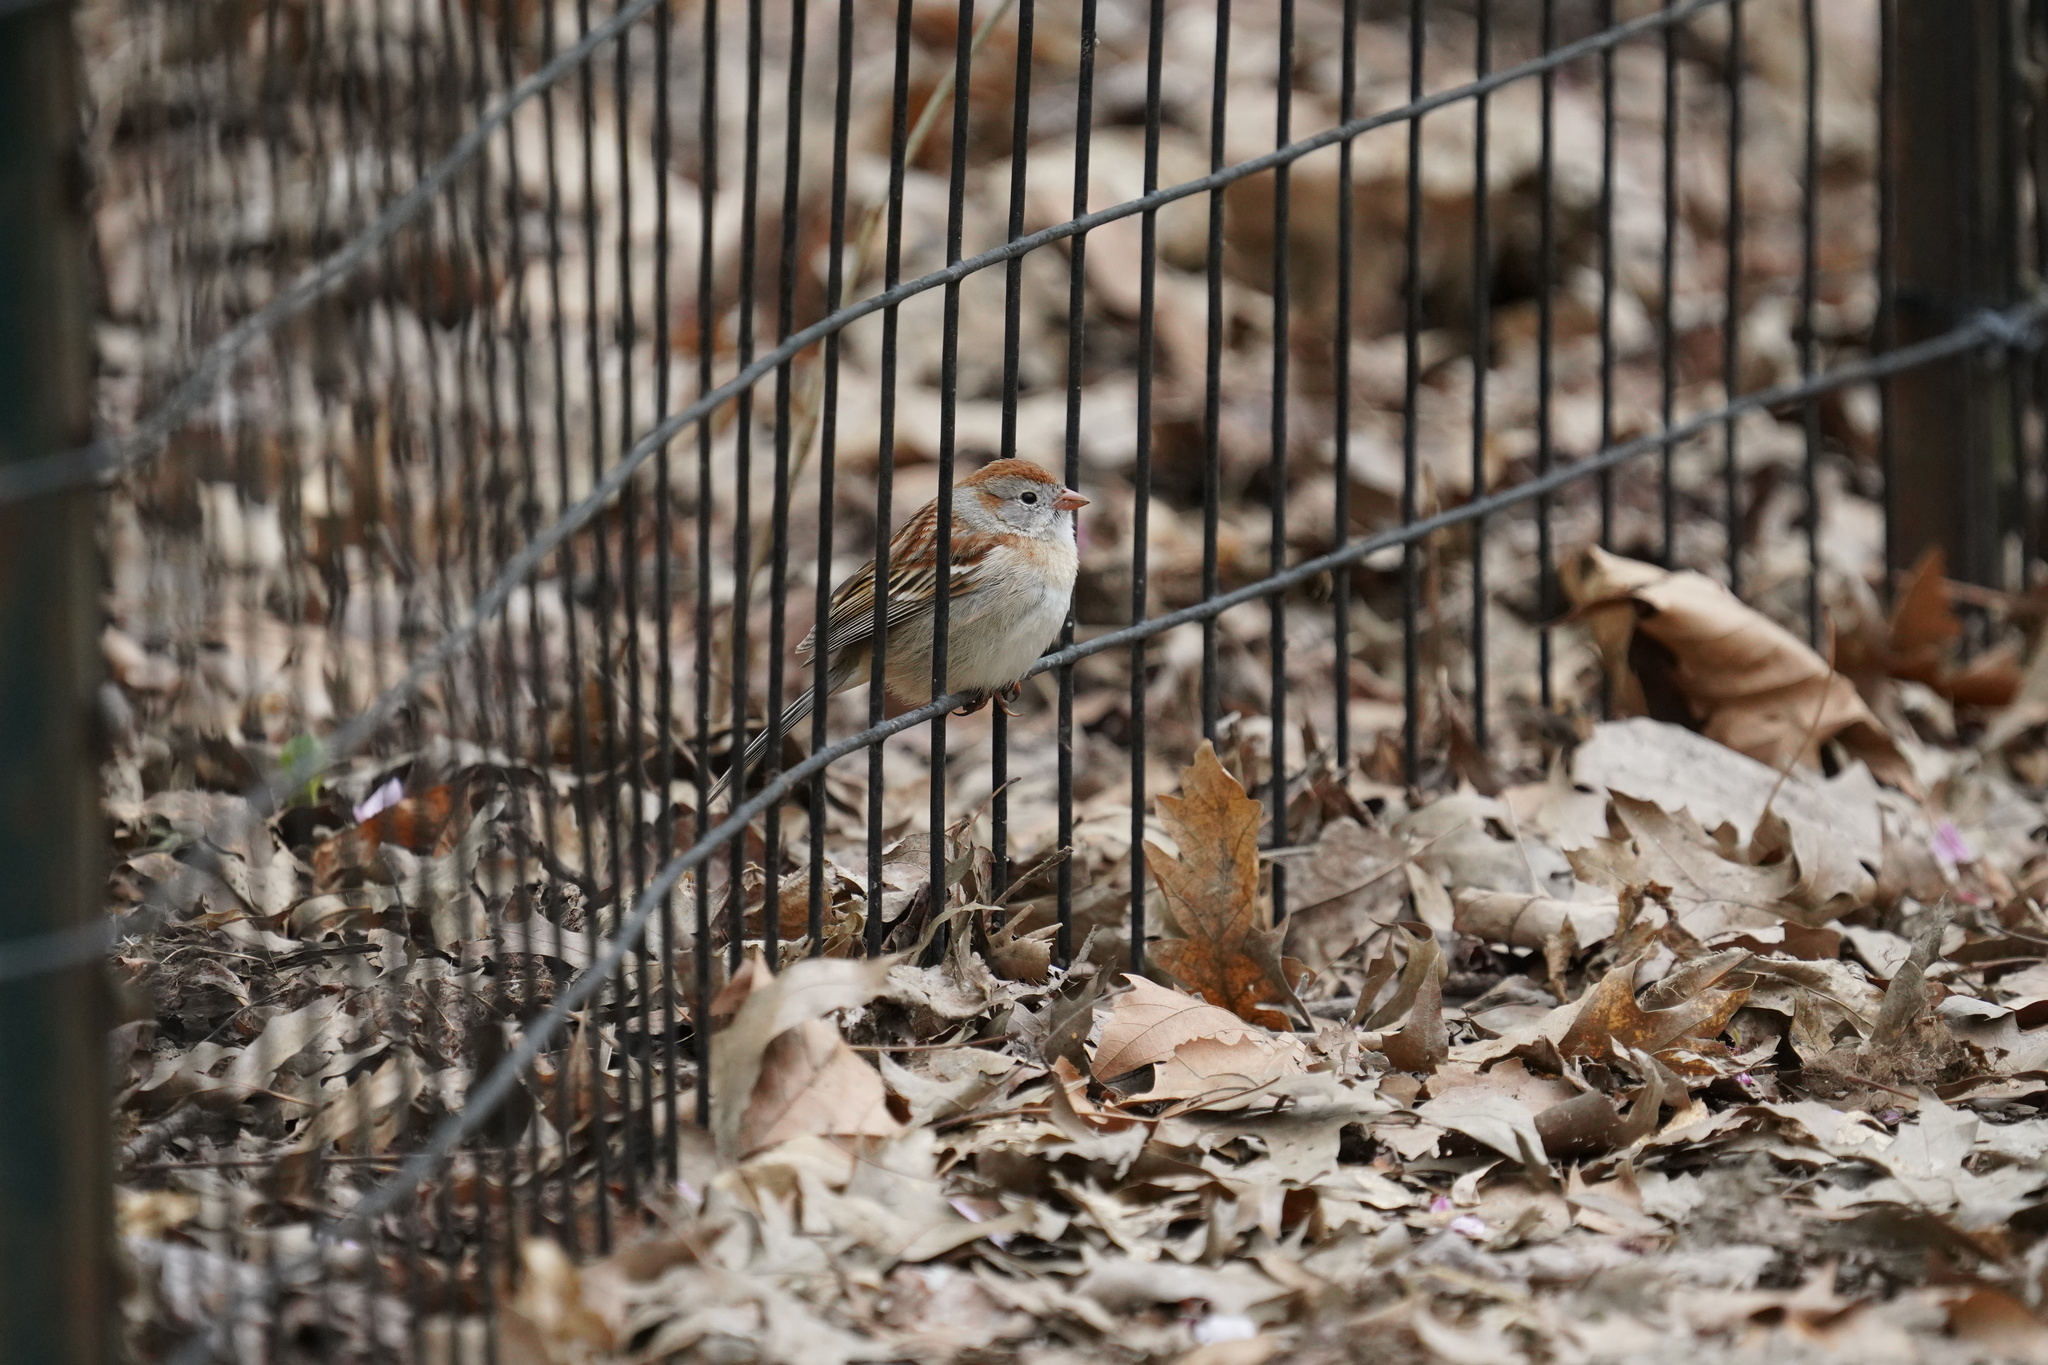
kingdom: Animalia
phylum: Chordata
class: Aves
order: Passeriformes
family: Passerellidae
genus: Spizella
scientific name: Spizella pusilla
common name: Field sparrow
